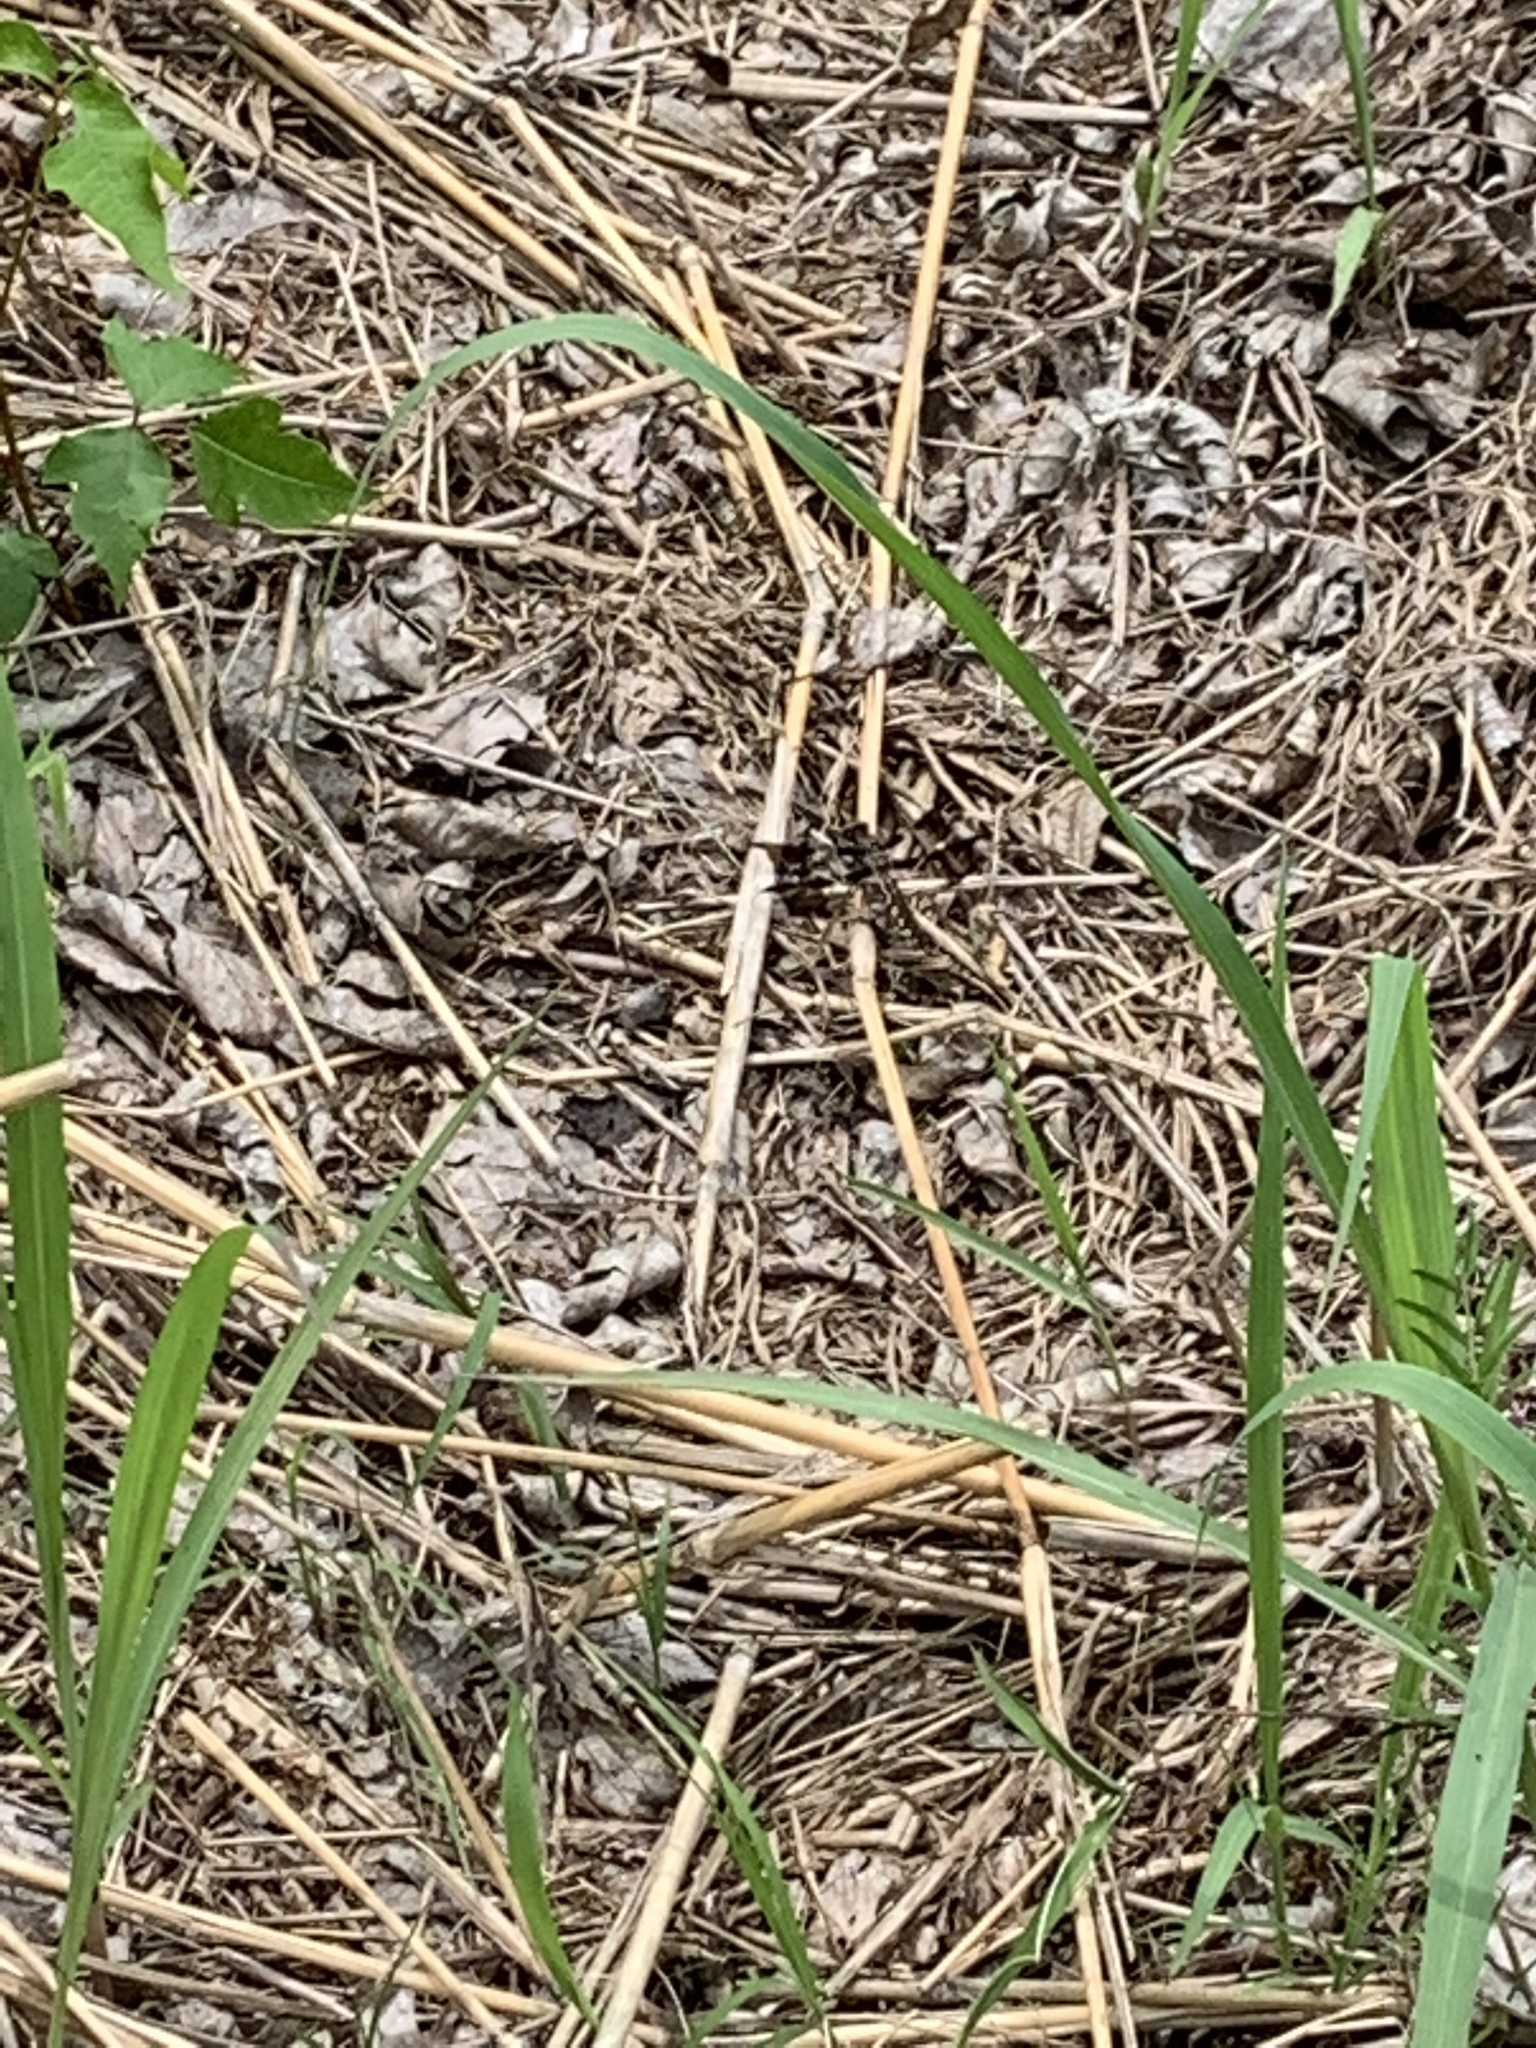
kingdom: Animalia
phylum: Arthropoda
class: Insecta
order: Odonata
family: Libellulidae
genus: Plathemis
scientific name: Plathemis lydia
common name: Common whitetail
